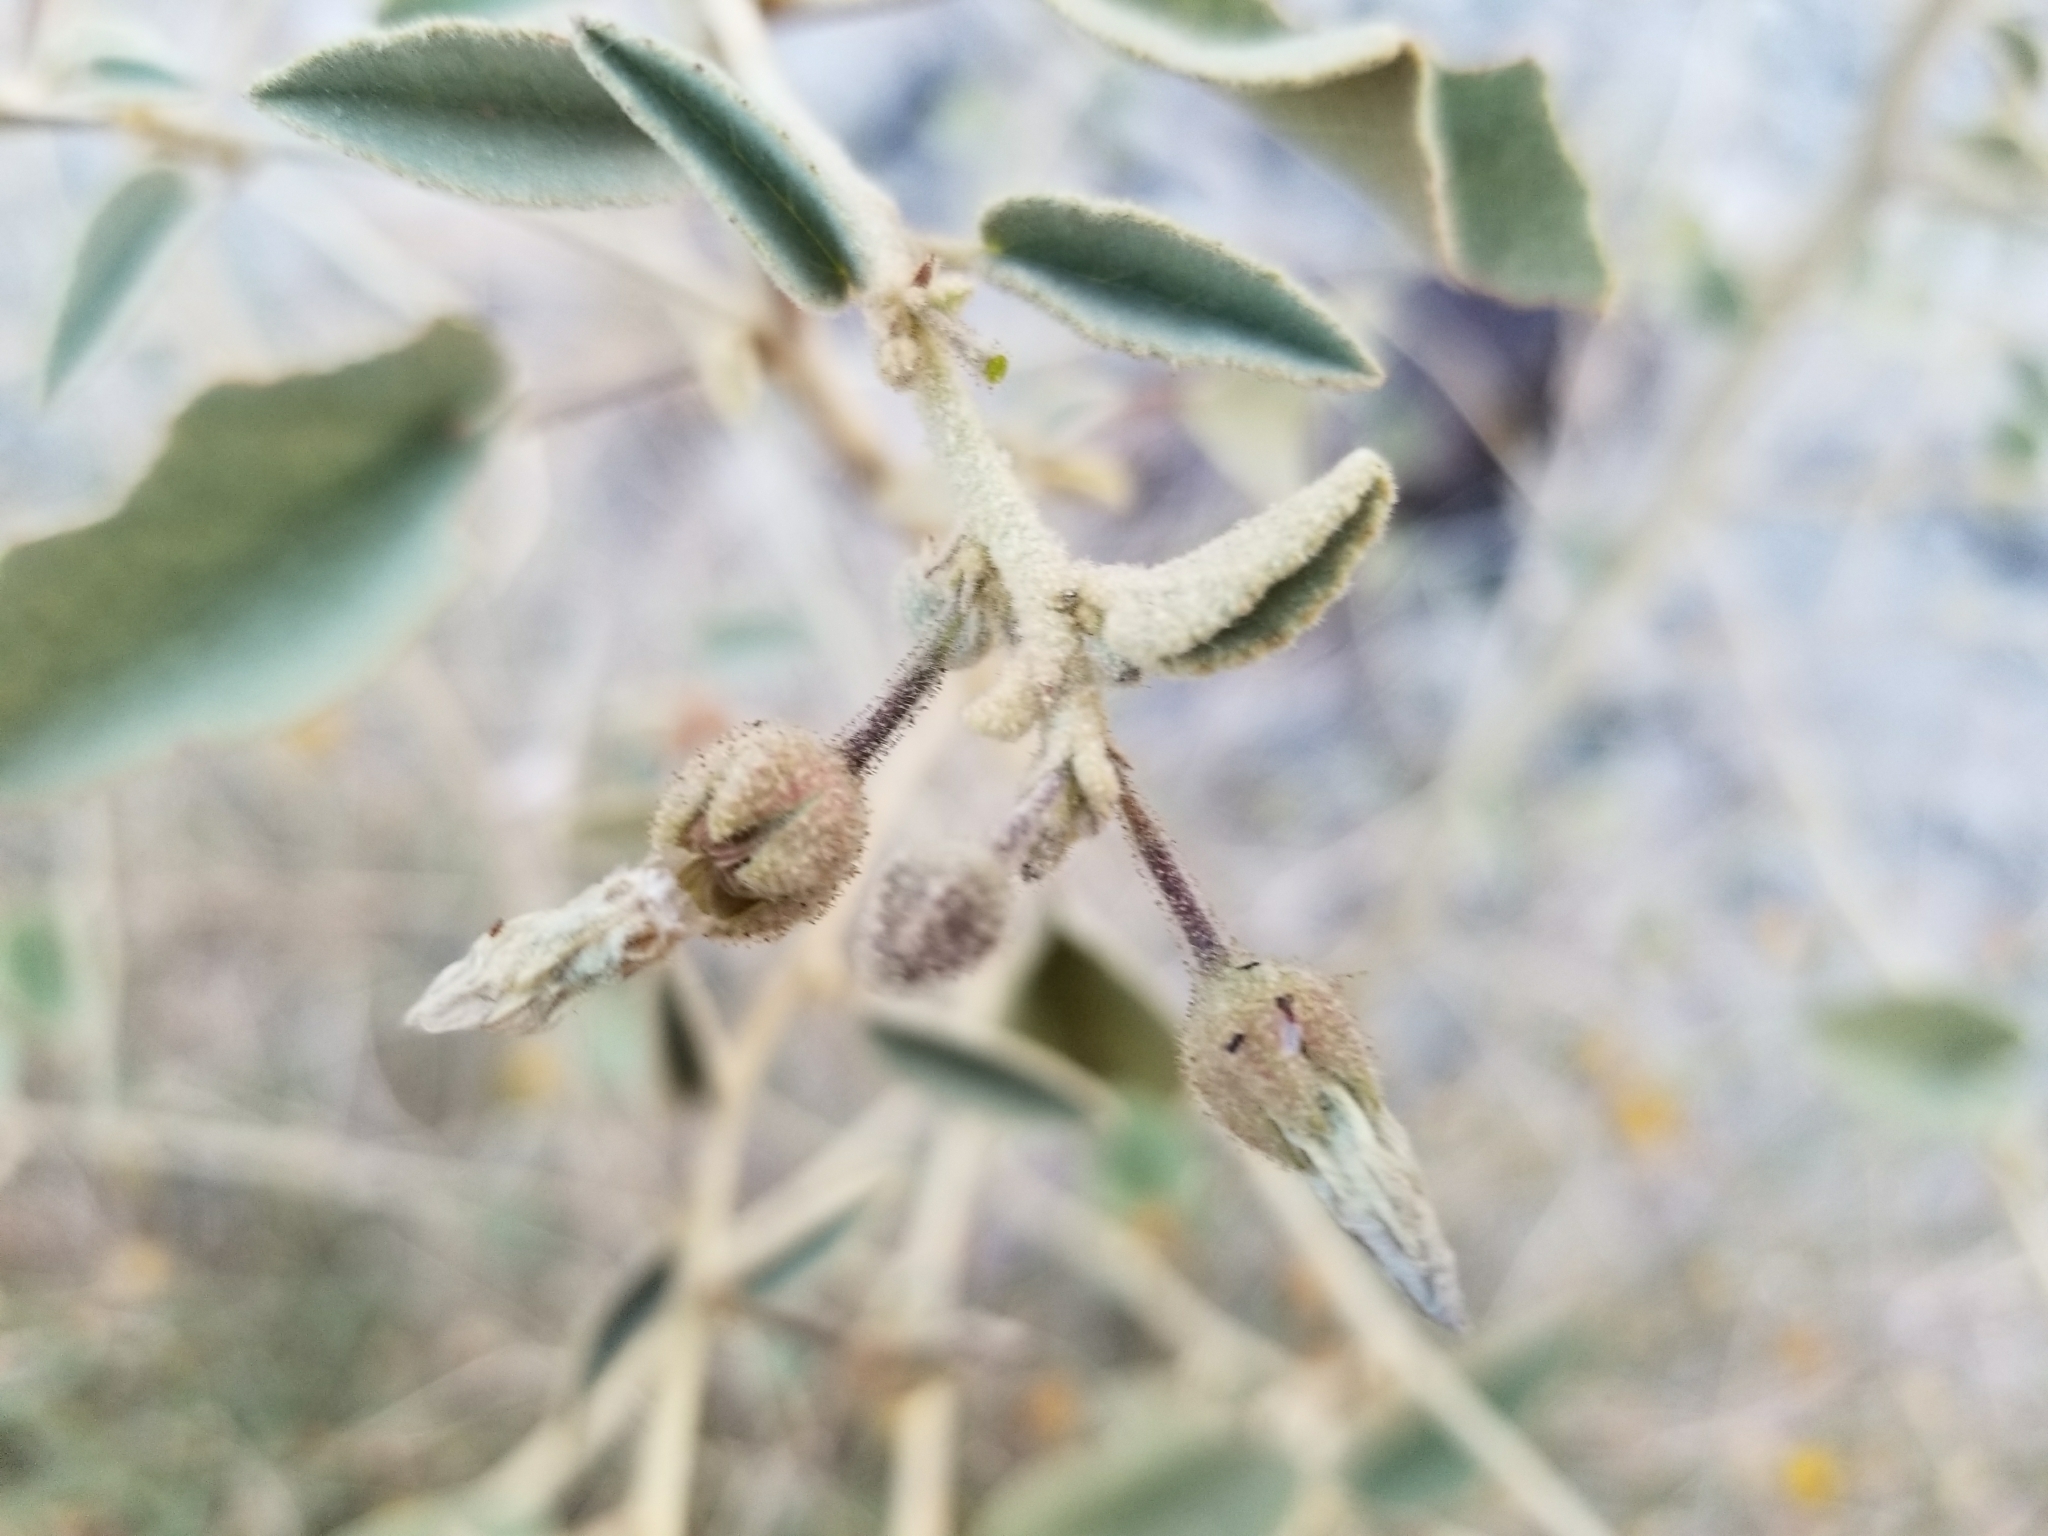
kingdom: Plantae
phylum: Tracheophyta
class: Magnoliopsida
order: Malvales
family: Malvaceae
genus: Hibiscus
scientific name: Hibiscus denudatus
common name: Paleface
